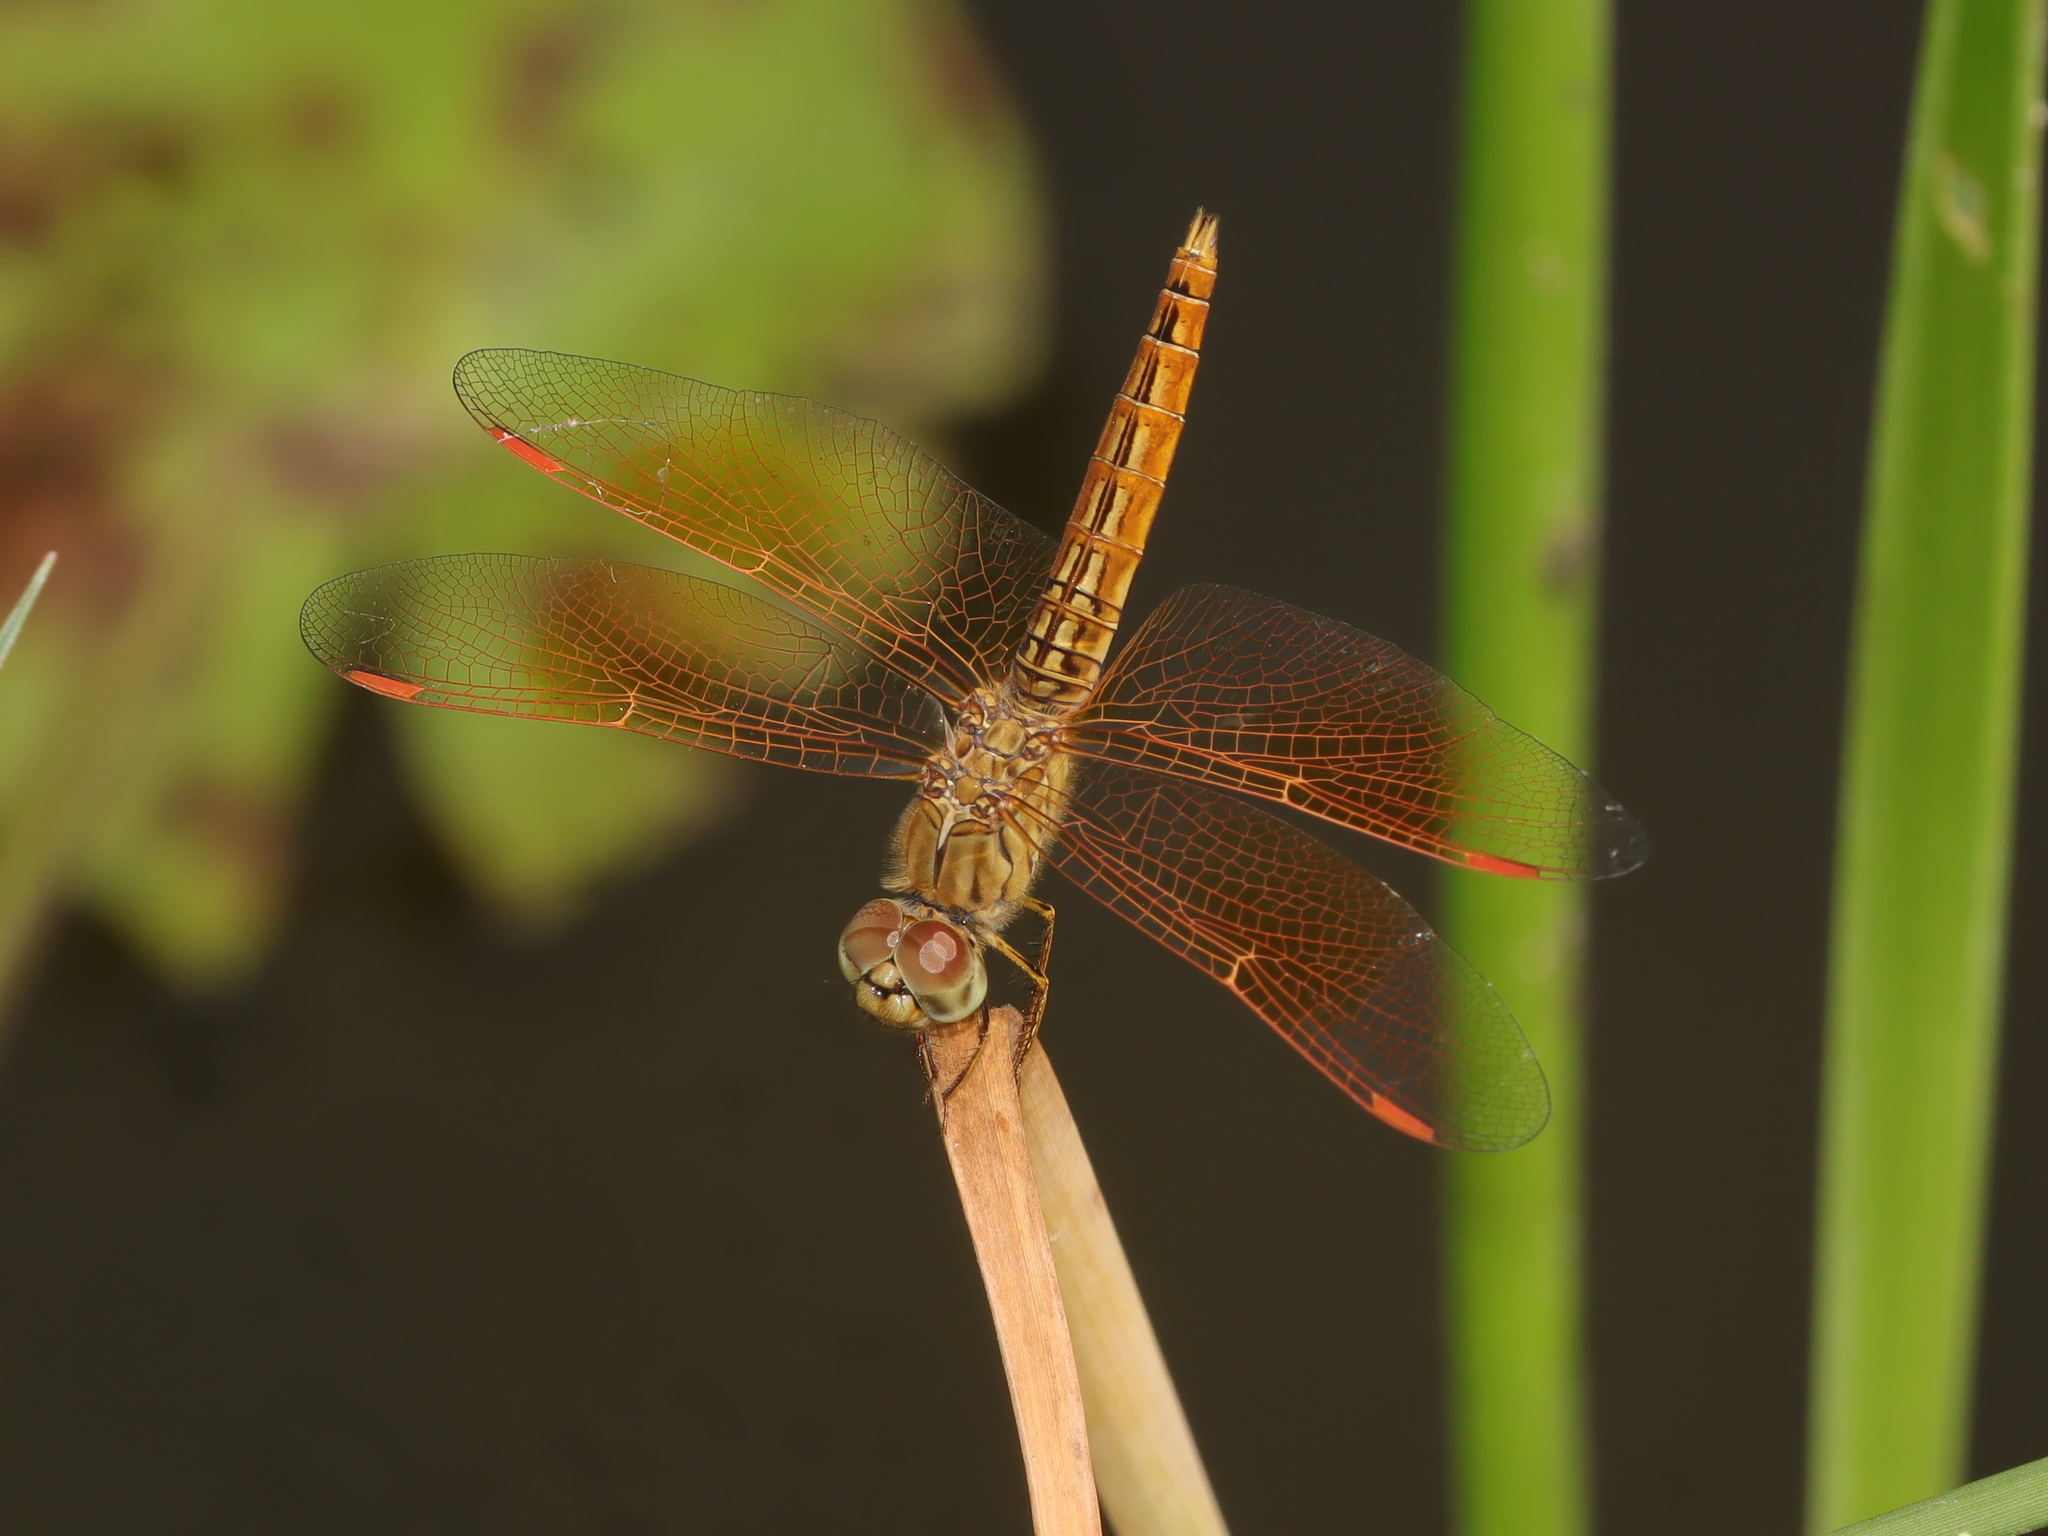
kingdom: Animalia
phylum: Arthropoda
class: Insecta
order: Odonata
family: Libellulidae
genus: Brachythemis
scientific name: Brachythemis contaminata
